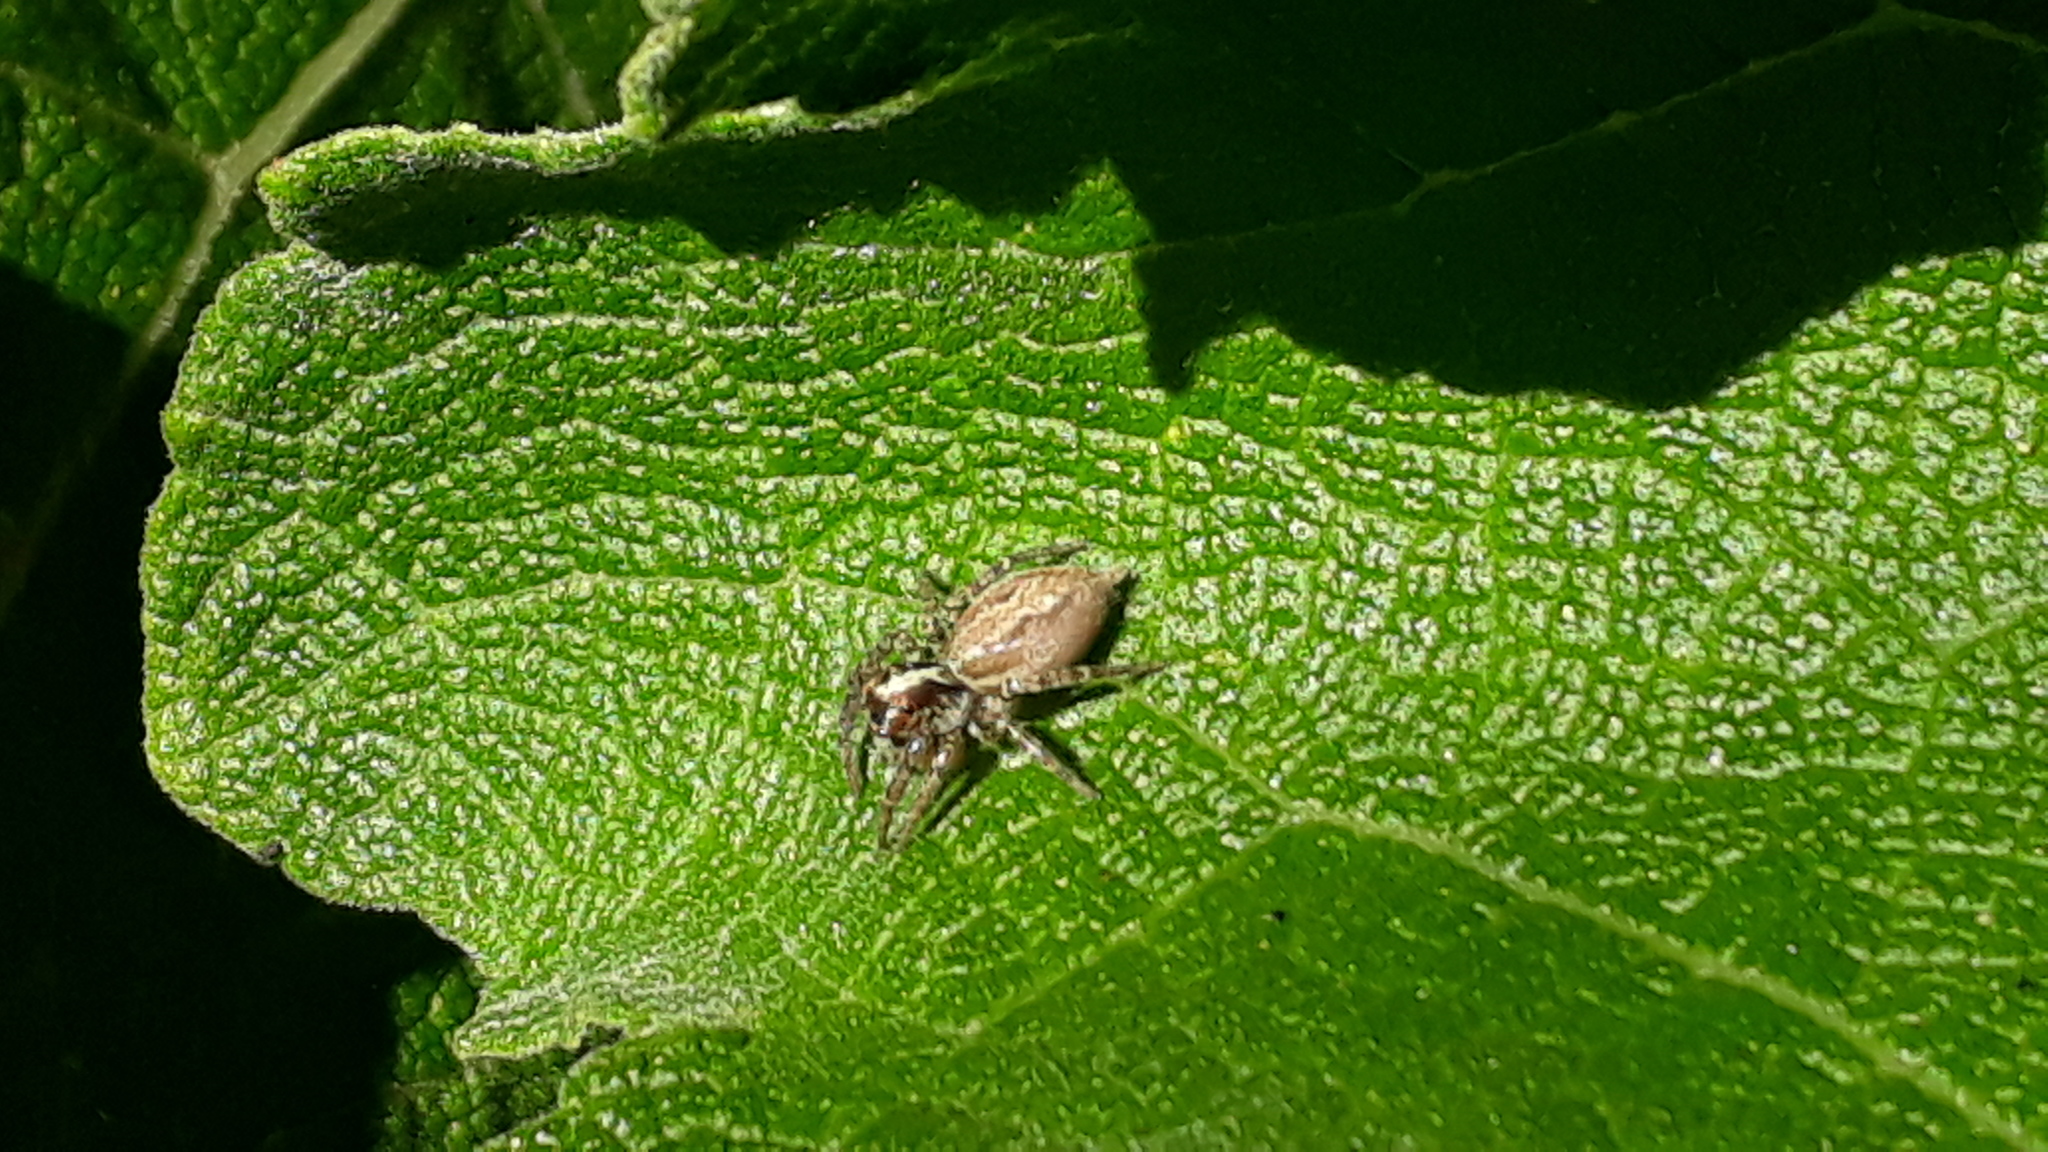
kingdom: Animalia
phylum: Arthropoda
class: Arachnida
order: Araneae
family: Salticidae
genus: Asaphobelis
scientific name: Asaphobelis physonychus
